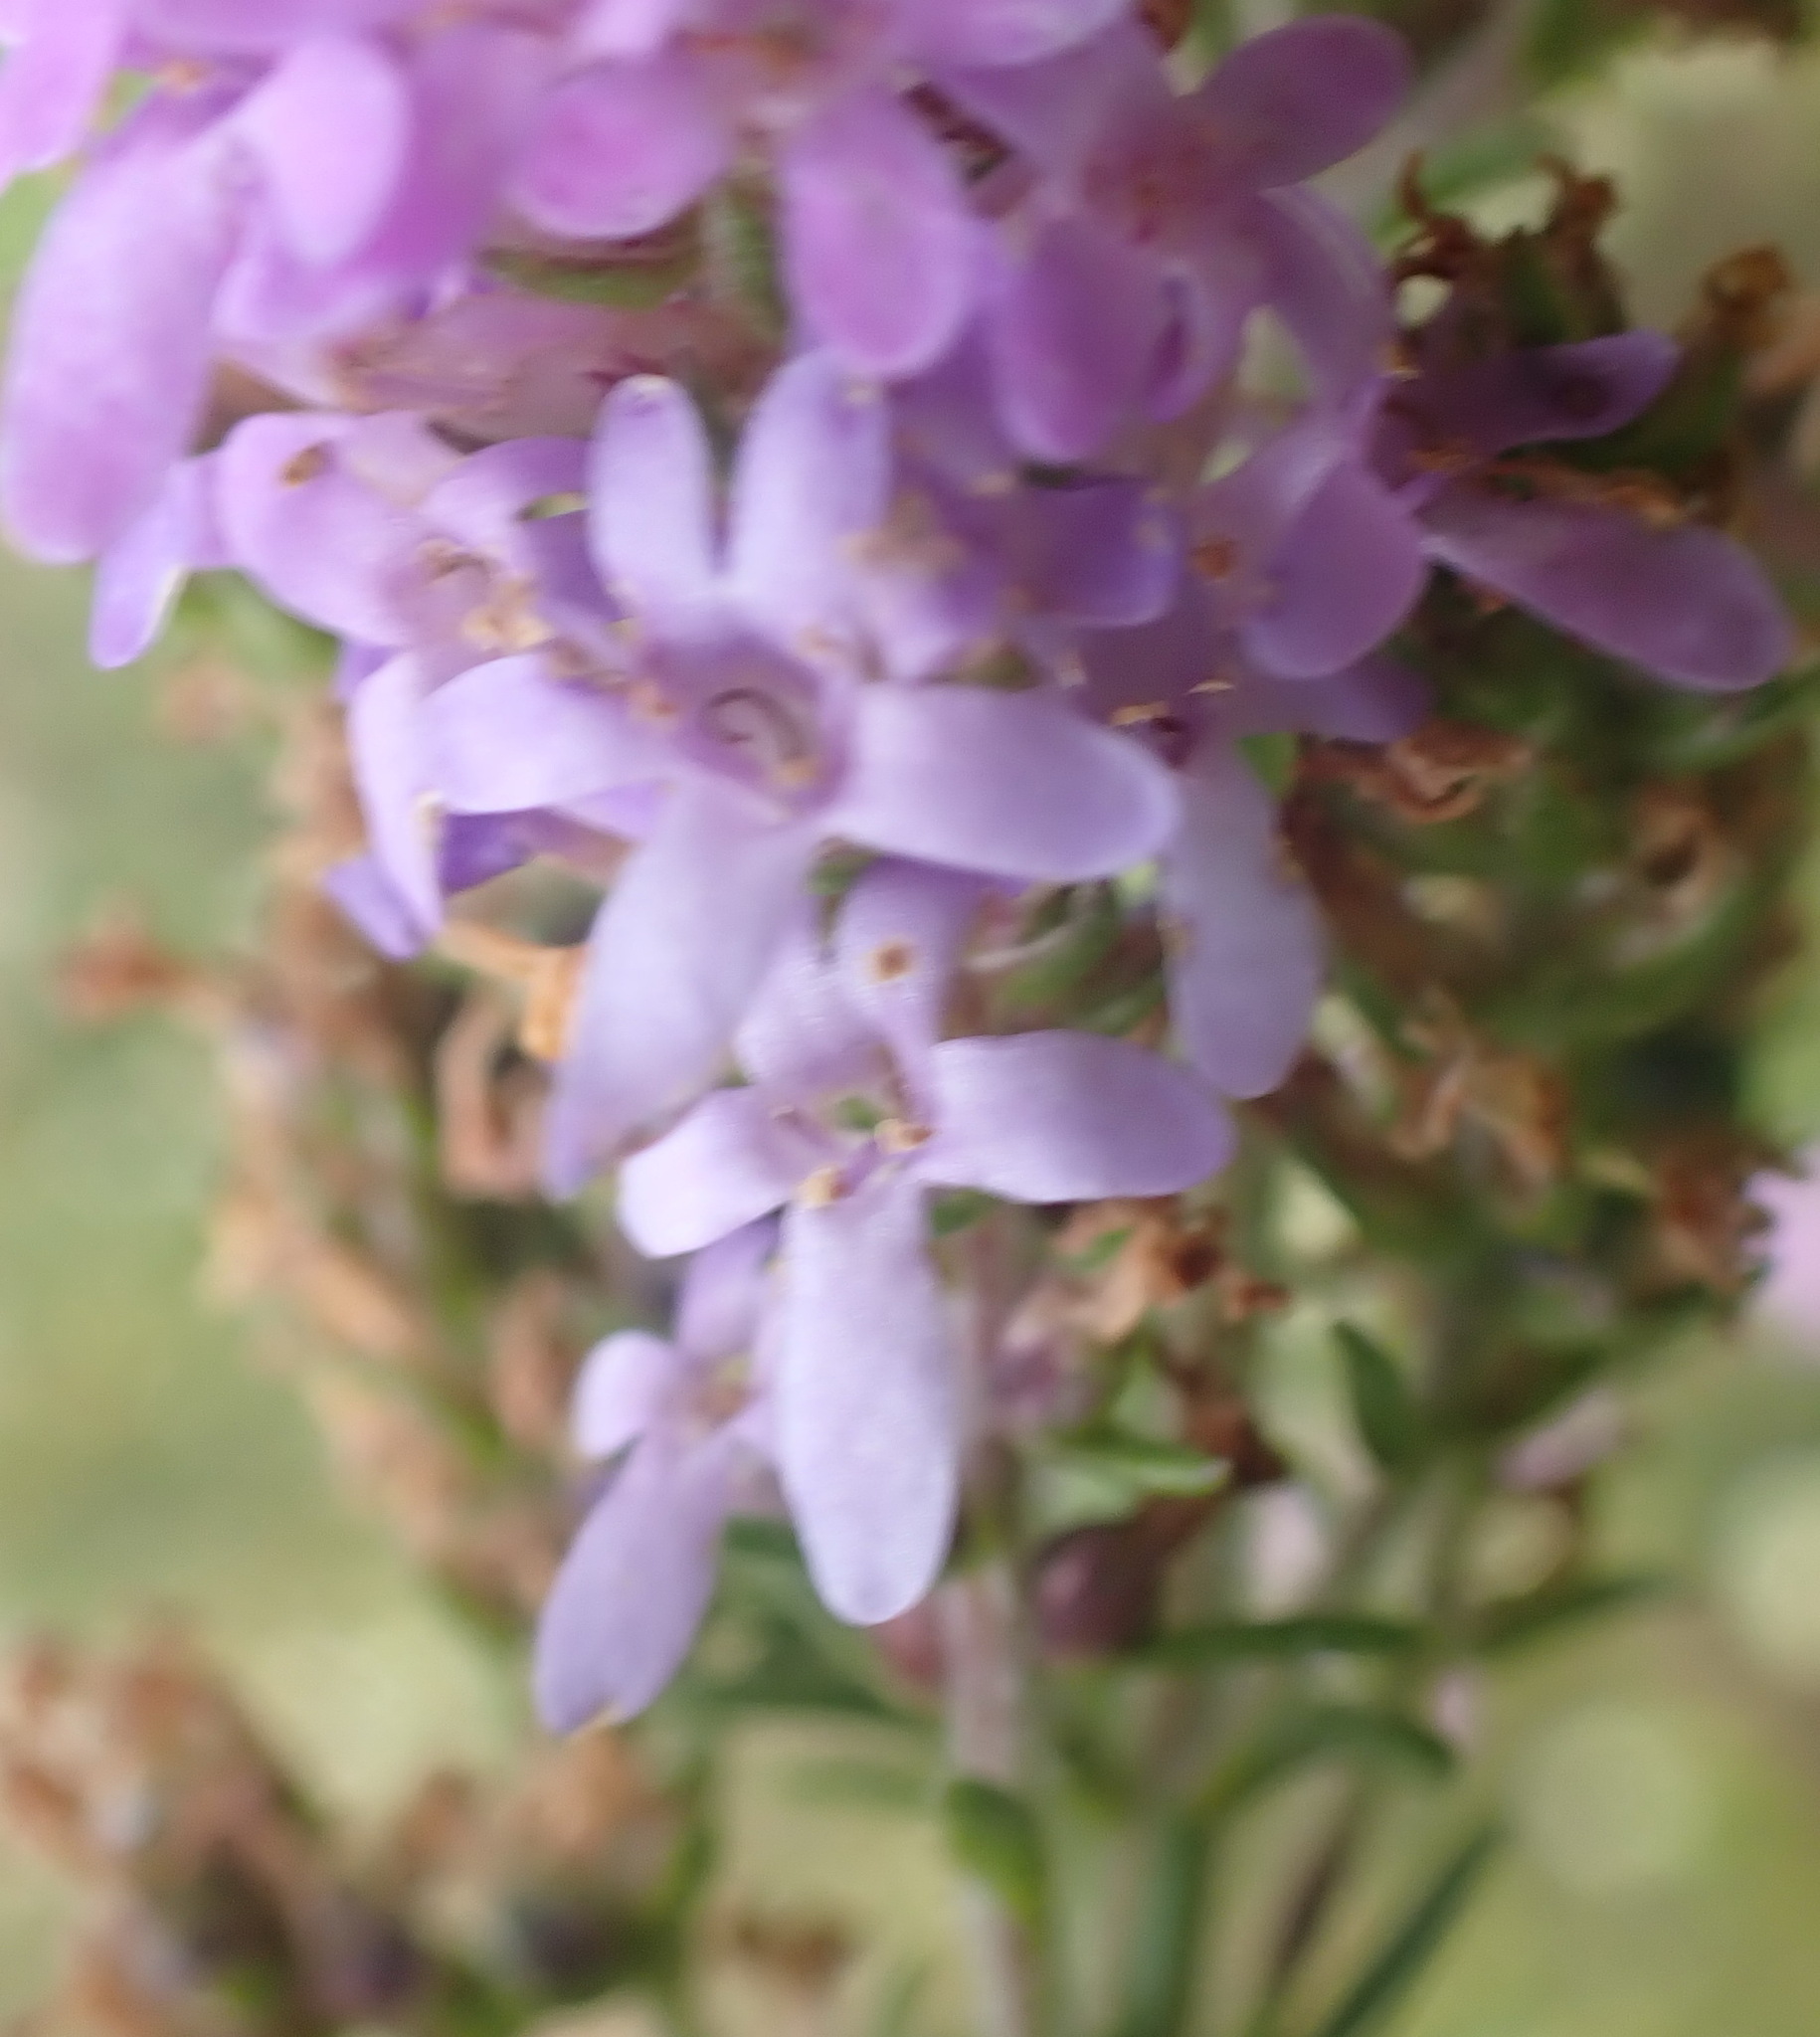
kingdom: Plantae
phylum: Tracheophyta
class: Magnoliopsida
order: Lamiales
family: Scrophulariaceae
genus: Selago
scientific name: Selago villicaulis
